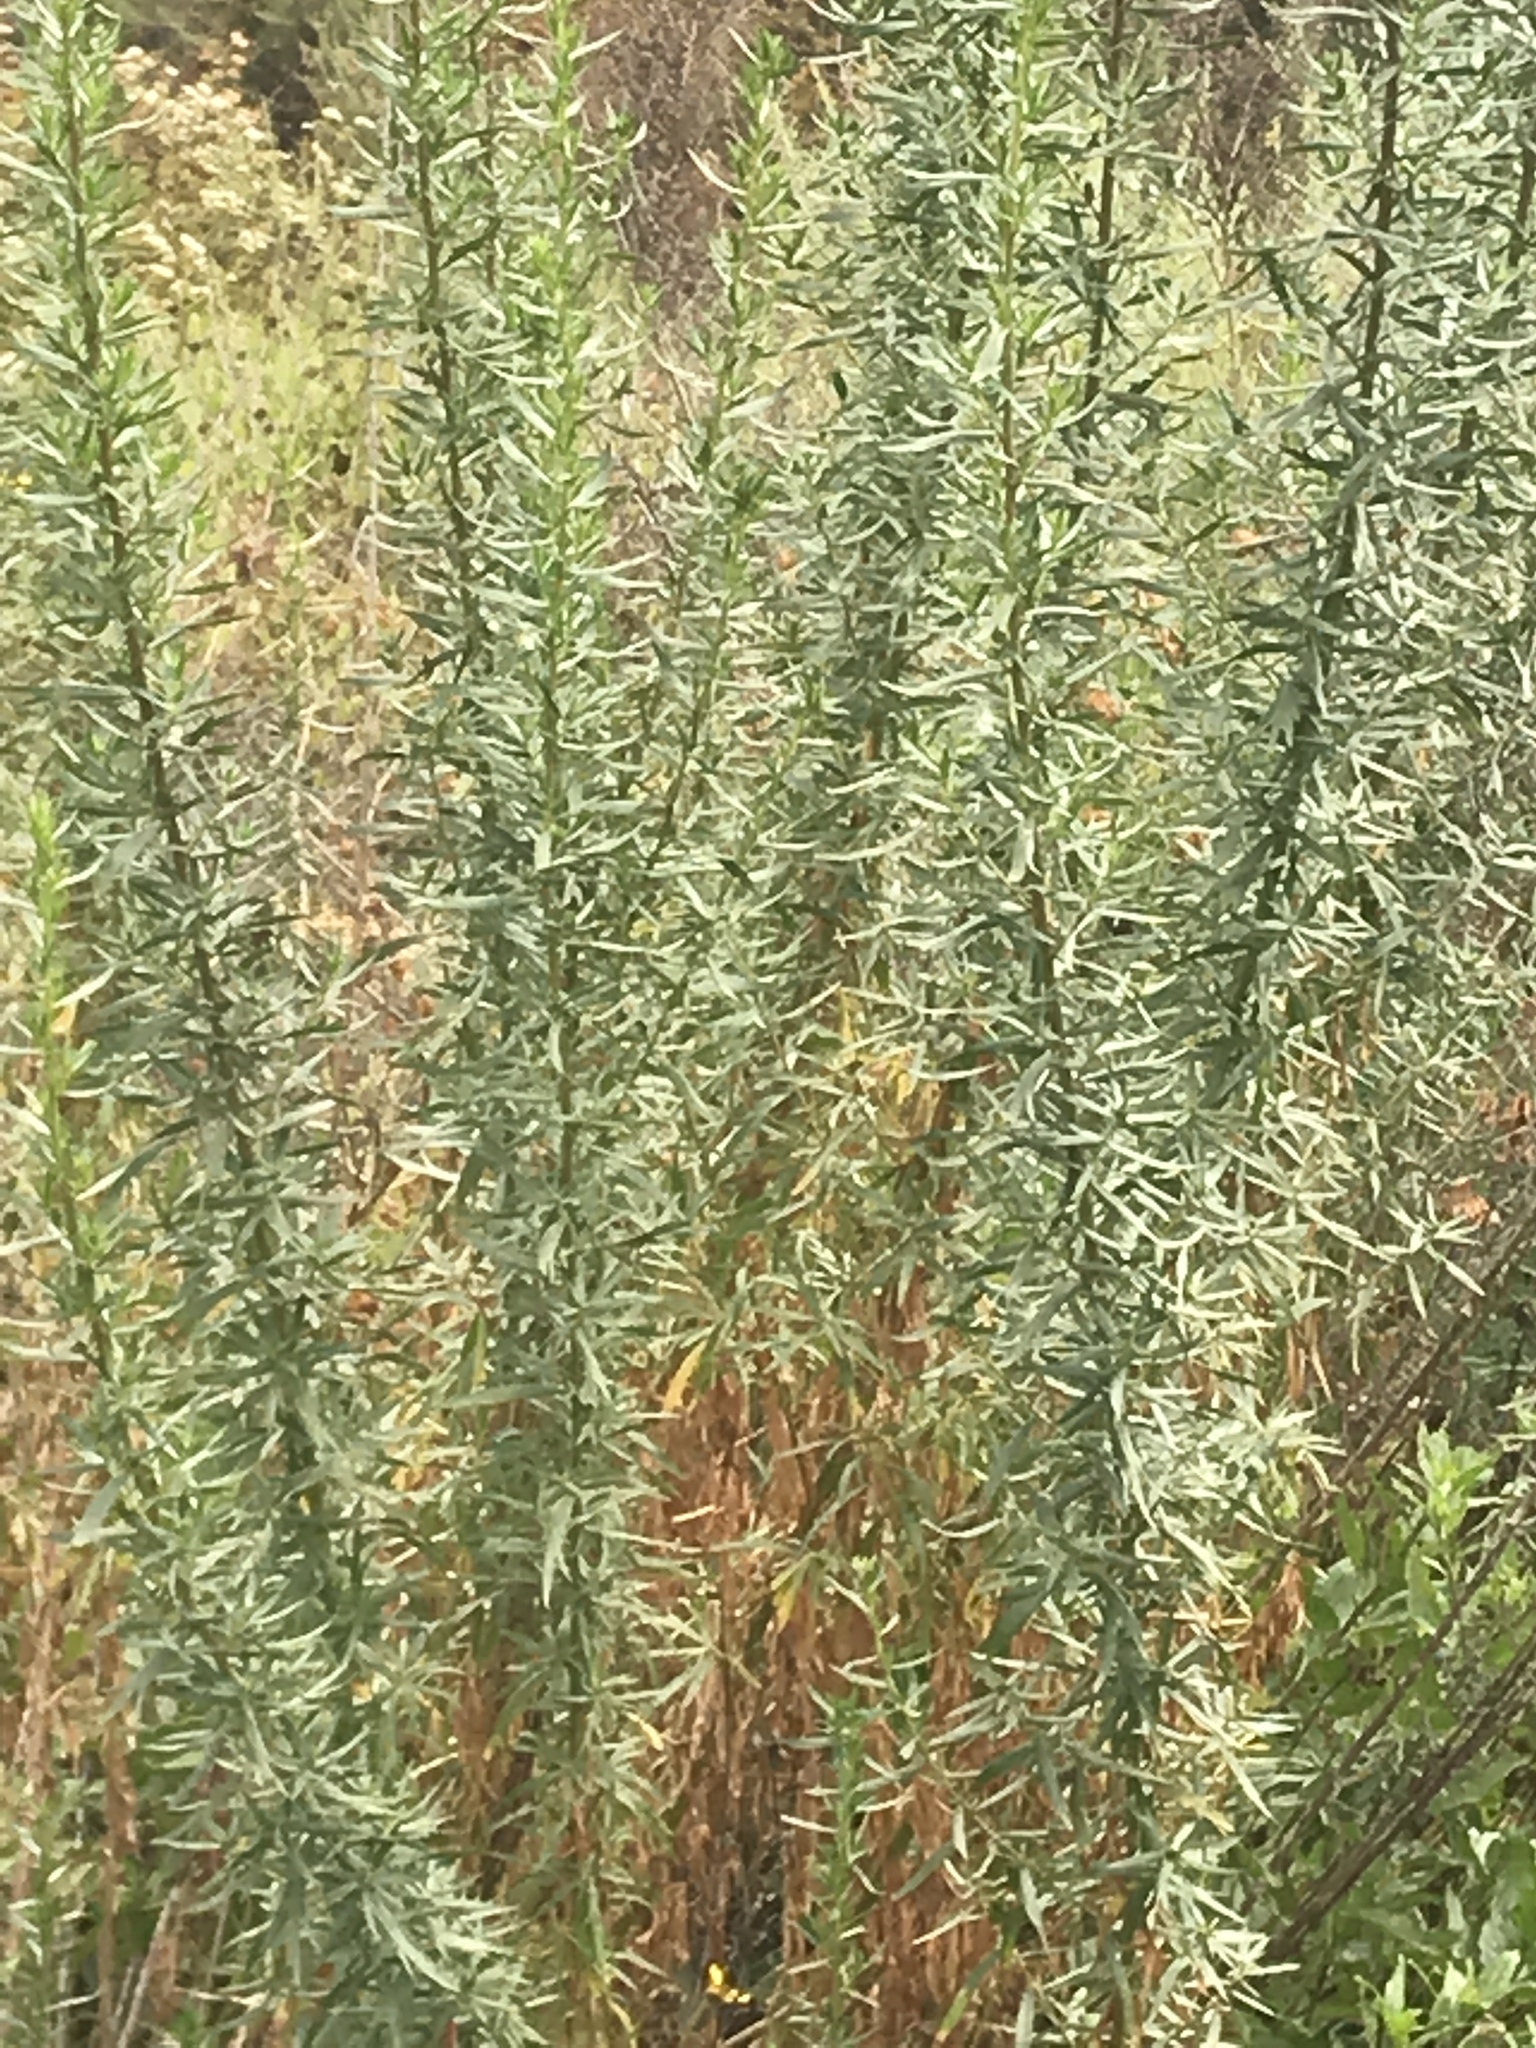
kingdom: Plantae
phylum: Tracheophyta
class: Magnoliopsida
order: Asterales
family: Asteraceae
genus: Artemisia
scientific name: Artemisia dracunculus
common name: Tarragon
